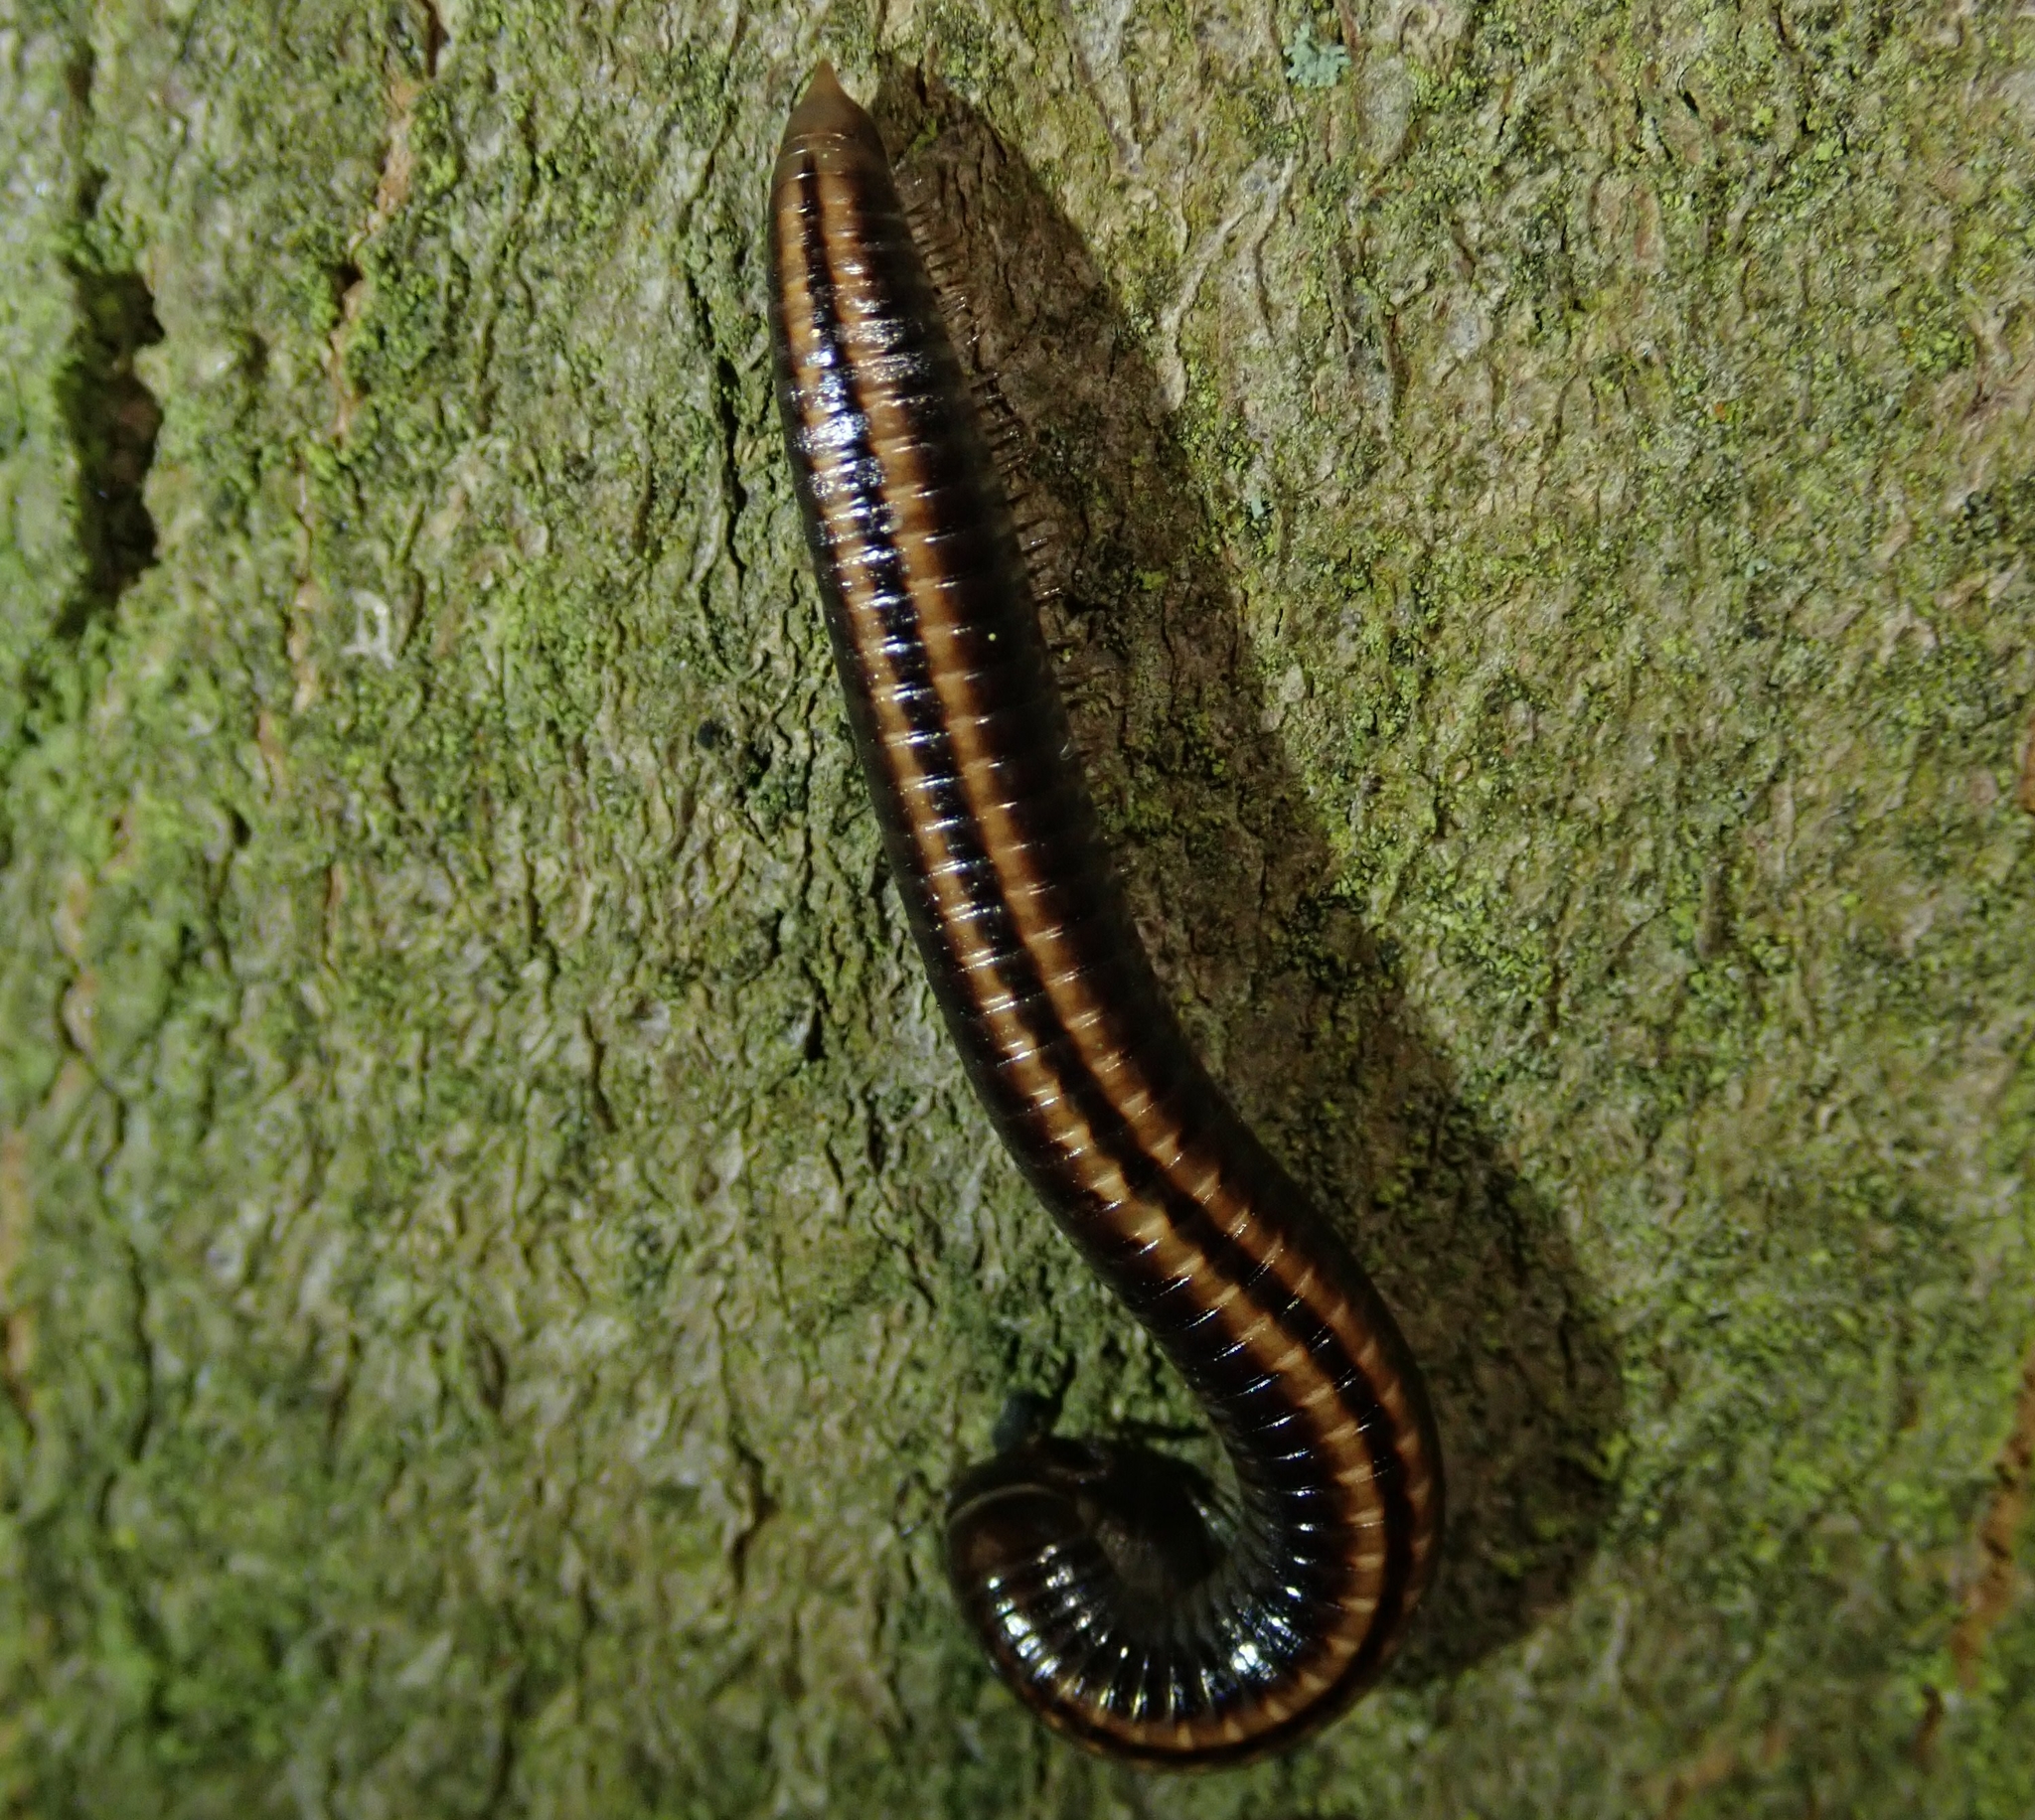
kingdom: Animalia
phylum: Arthropoda
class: Diplopoda
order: Julida
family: Julidae
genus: Ommatoiulus
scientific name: Ommatoiulus sabulosus
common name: Striped millipede
